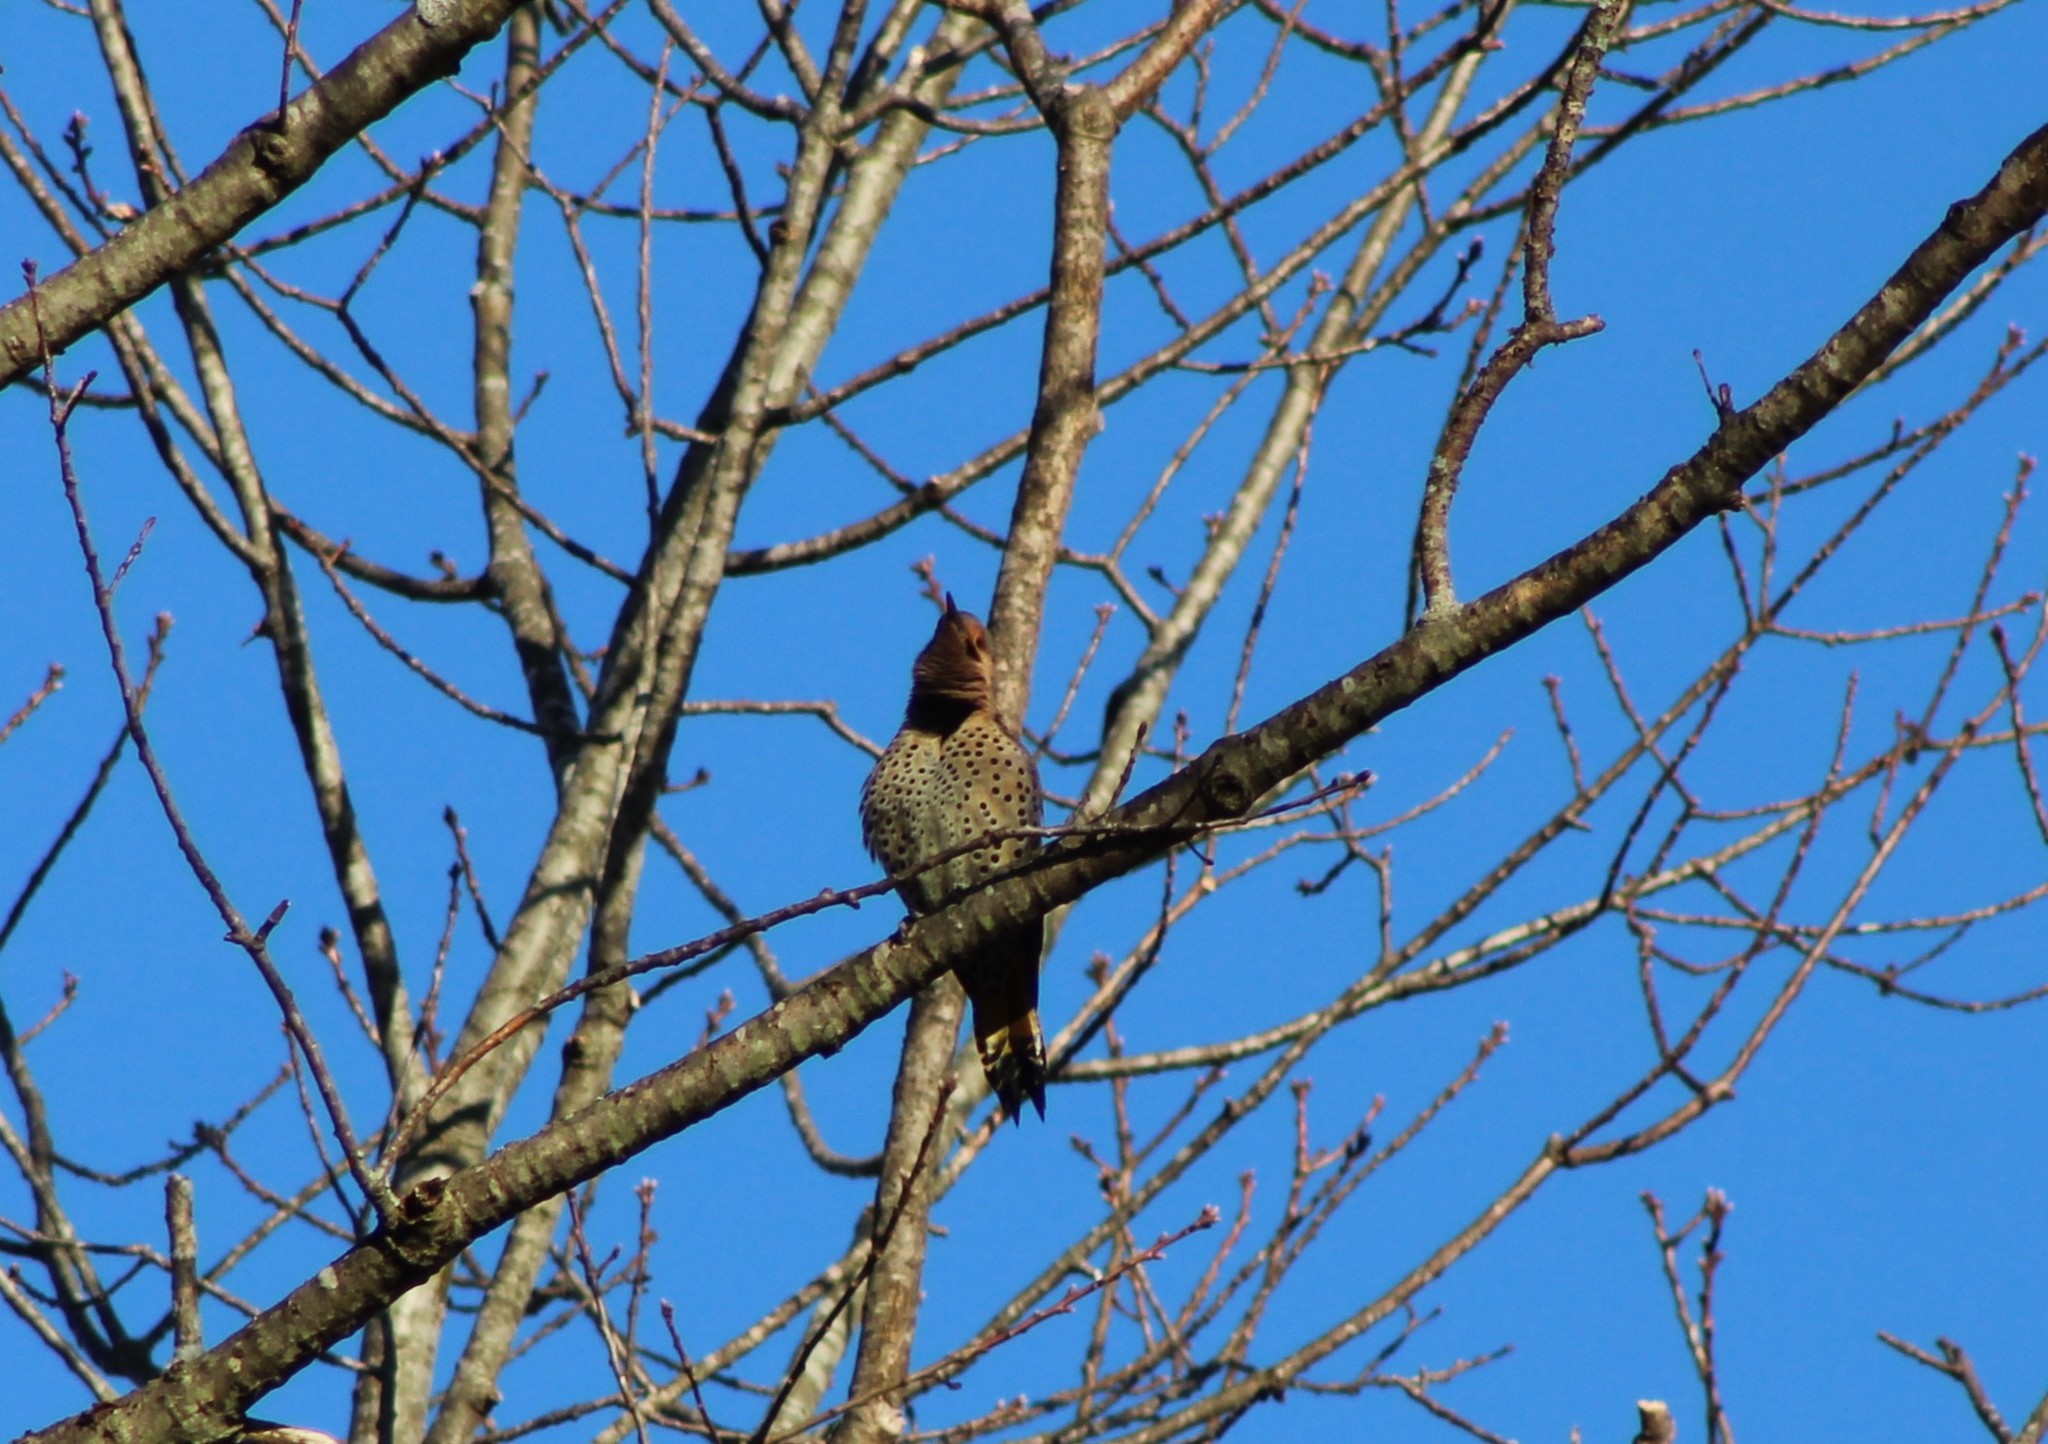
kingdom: Animalia
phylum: Chordata
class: Aves
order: Piciformes
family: Picidae
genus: Colaptes
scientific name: Colaptes auratus
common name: Northern flicker
